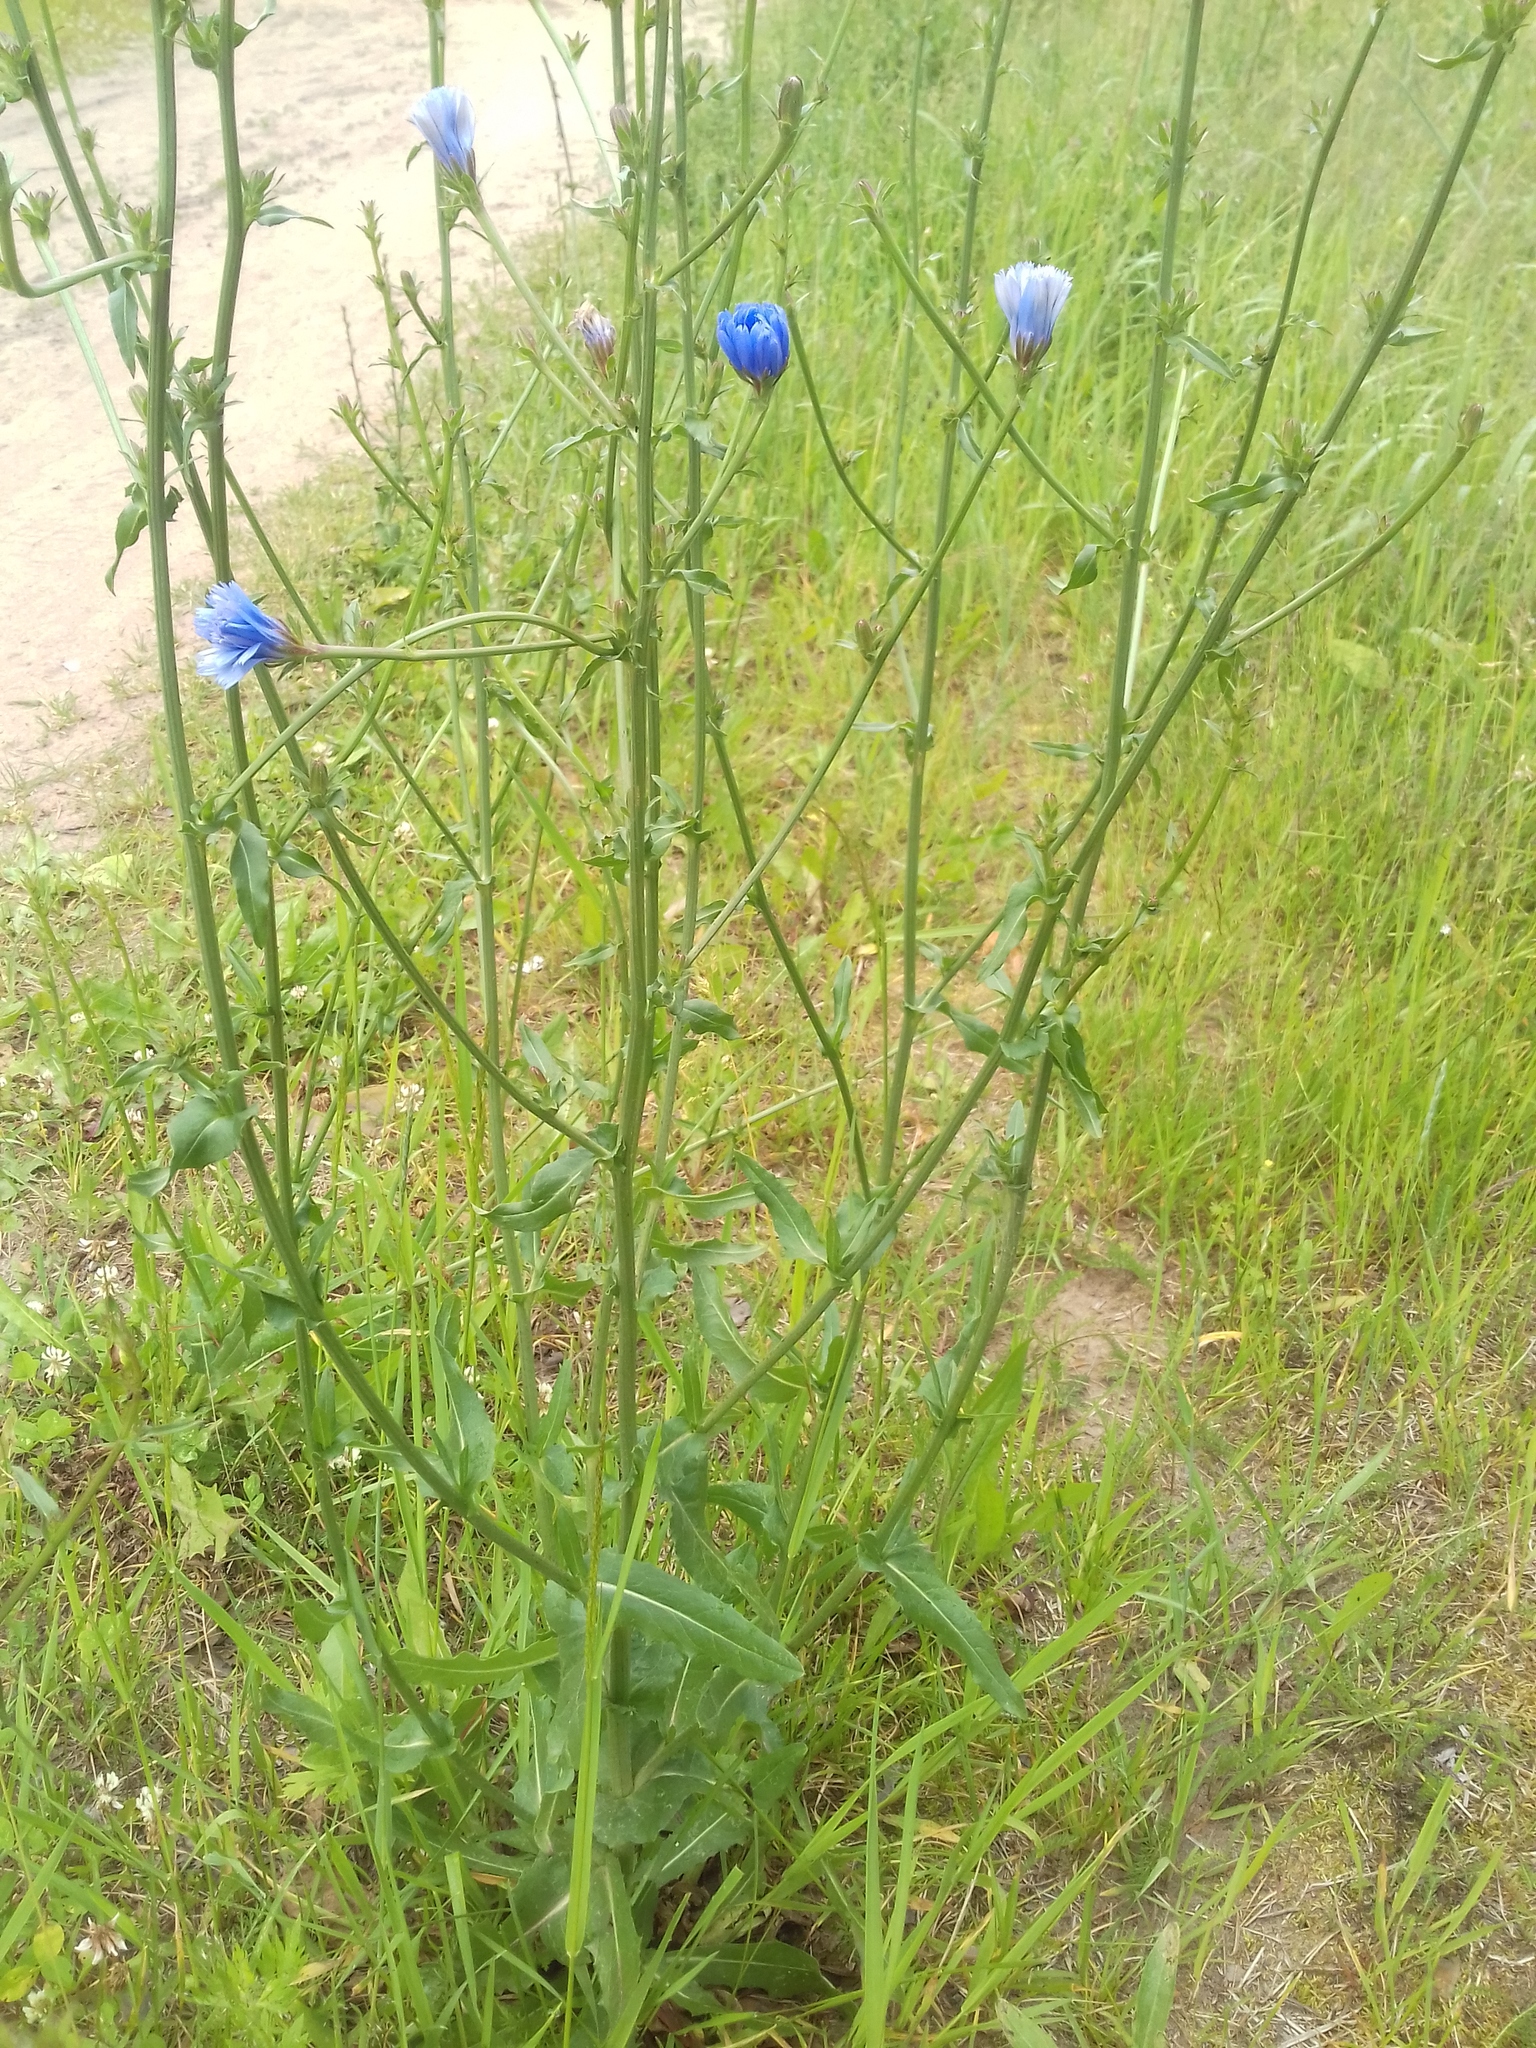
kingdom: Plantae
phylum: Tracheophyta
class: Magnoliopsida
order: Asterales
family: Asteraceae
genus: Cichorium
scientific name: Cichorium intybus
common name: Chicory
